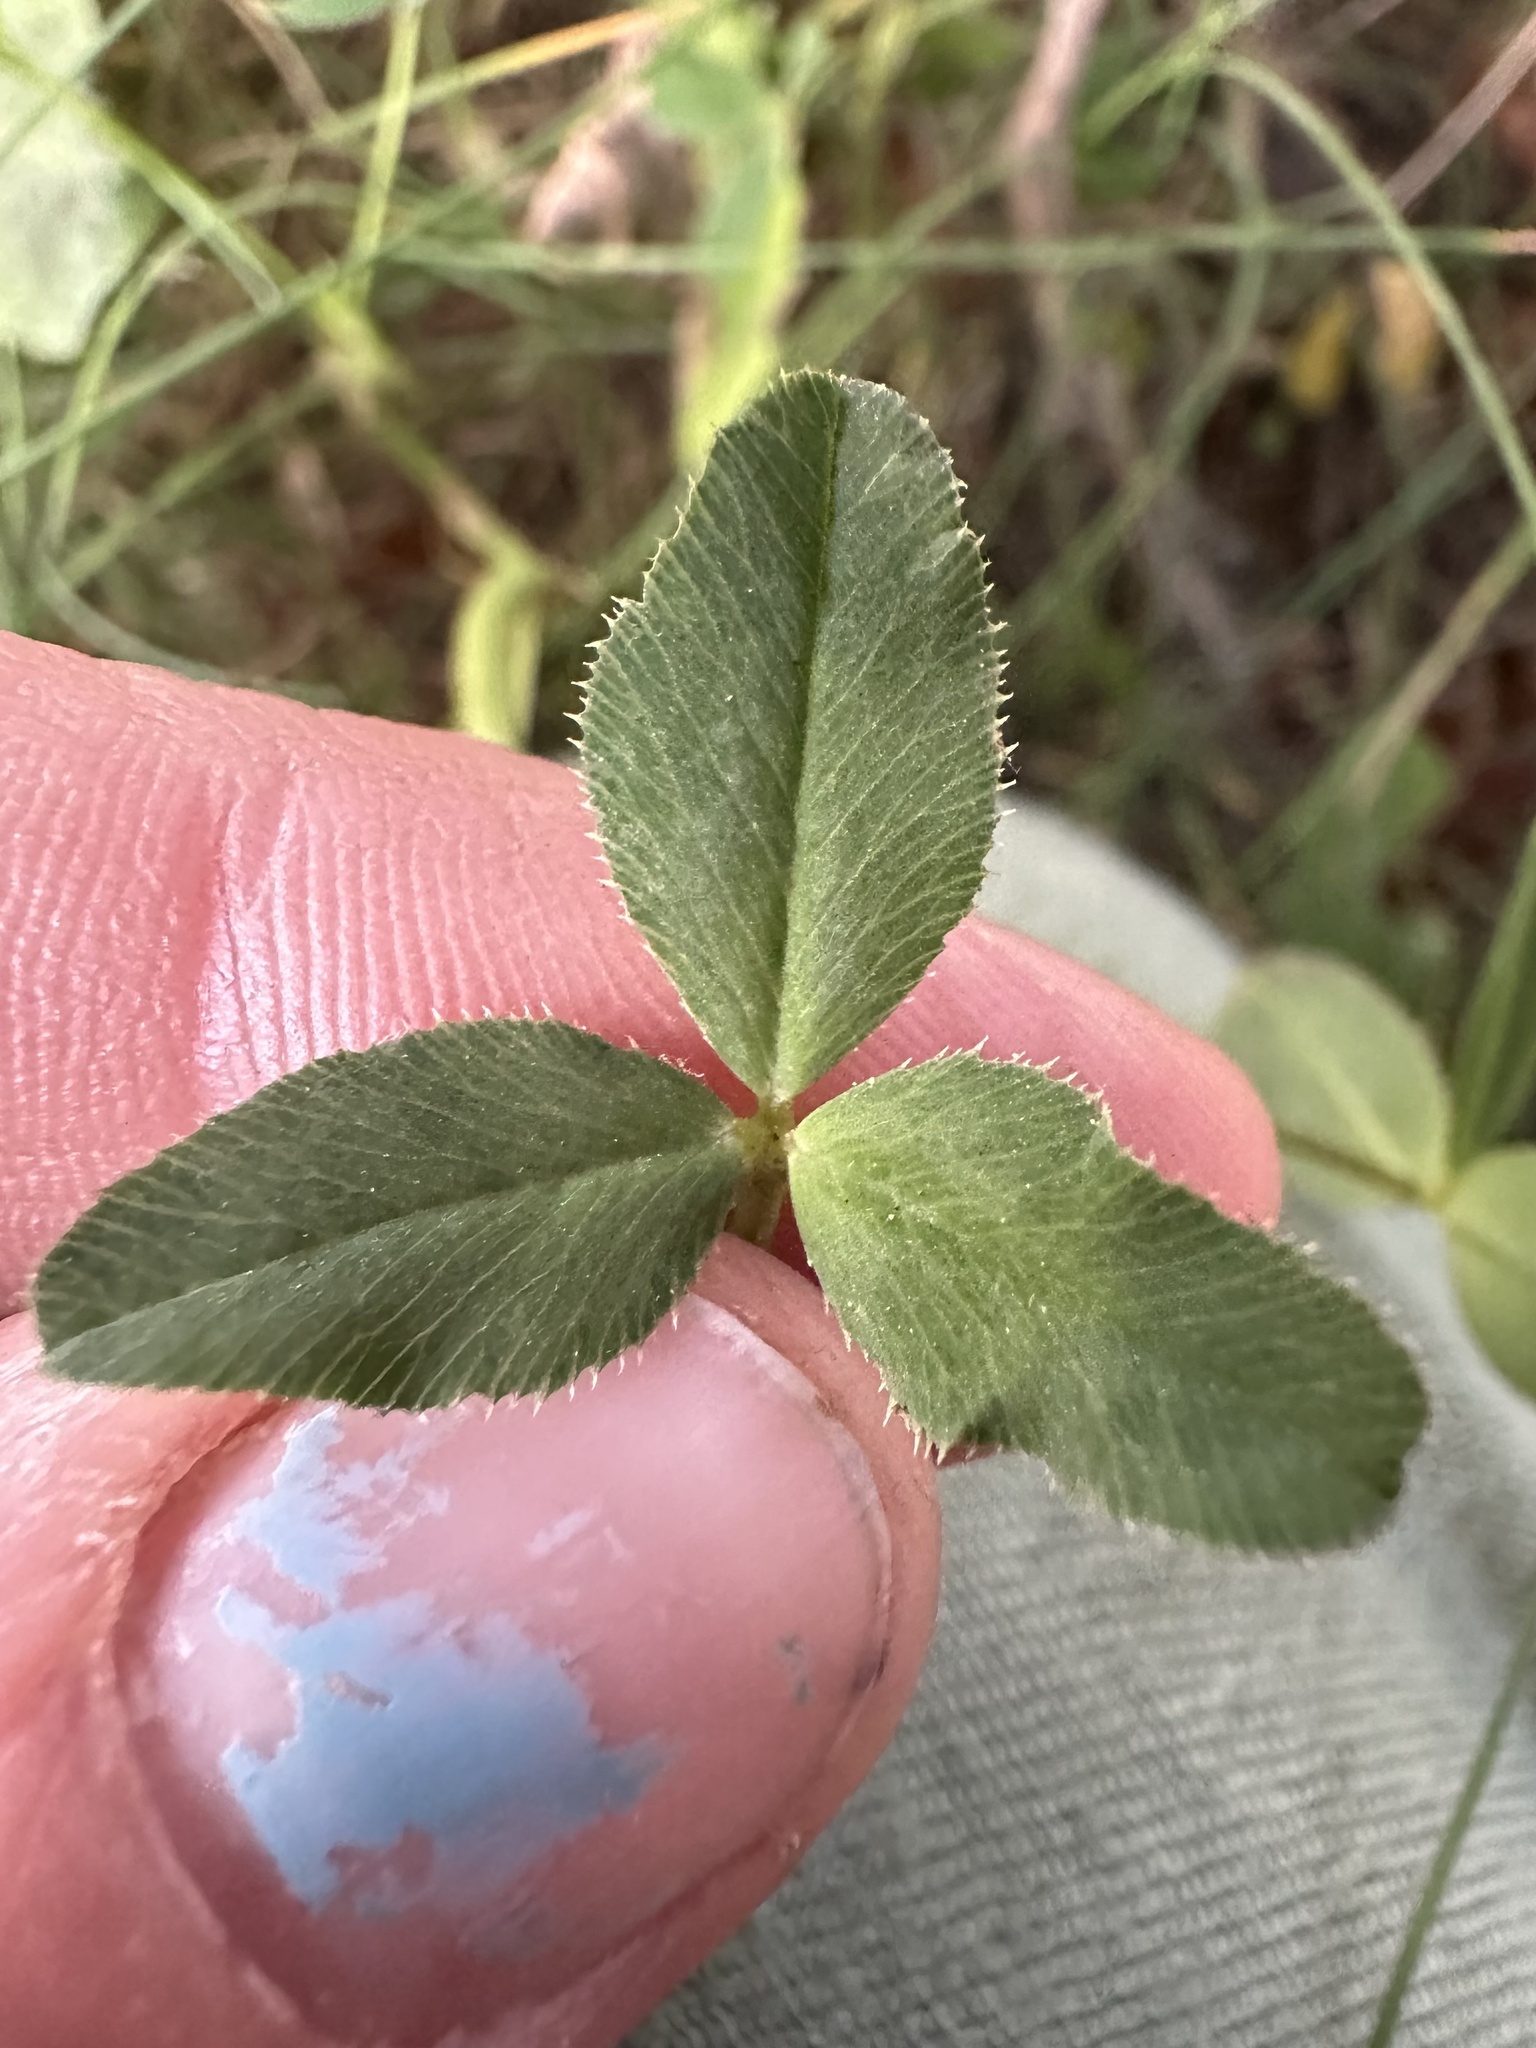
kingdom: Plantae
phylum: Tracheophyta
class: Magnoliopsida
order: Fabales
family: Fabaceae
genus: Trifolium
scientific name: Trifolium wormskioldii
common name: Springbank clover
